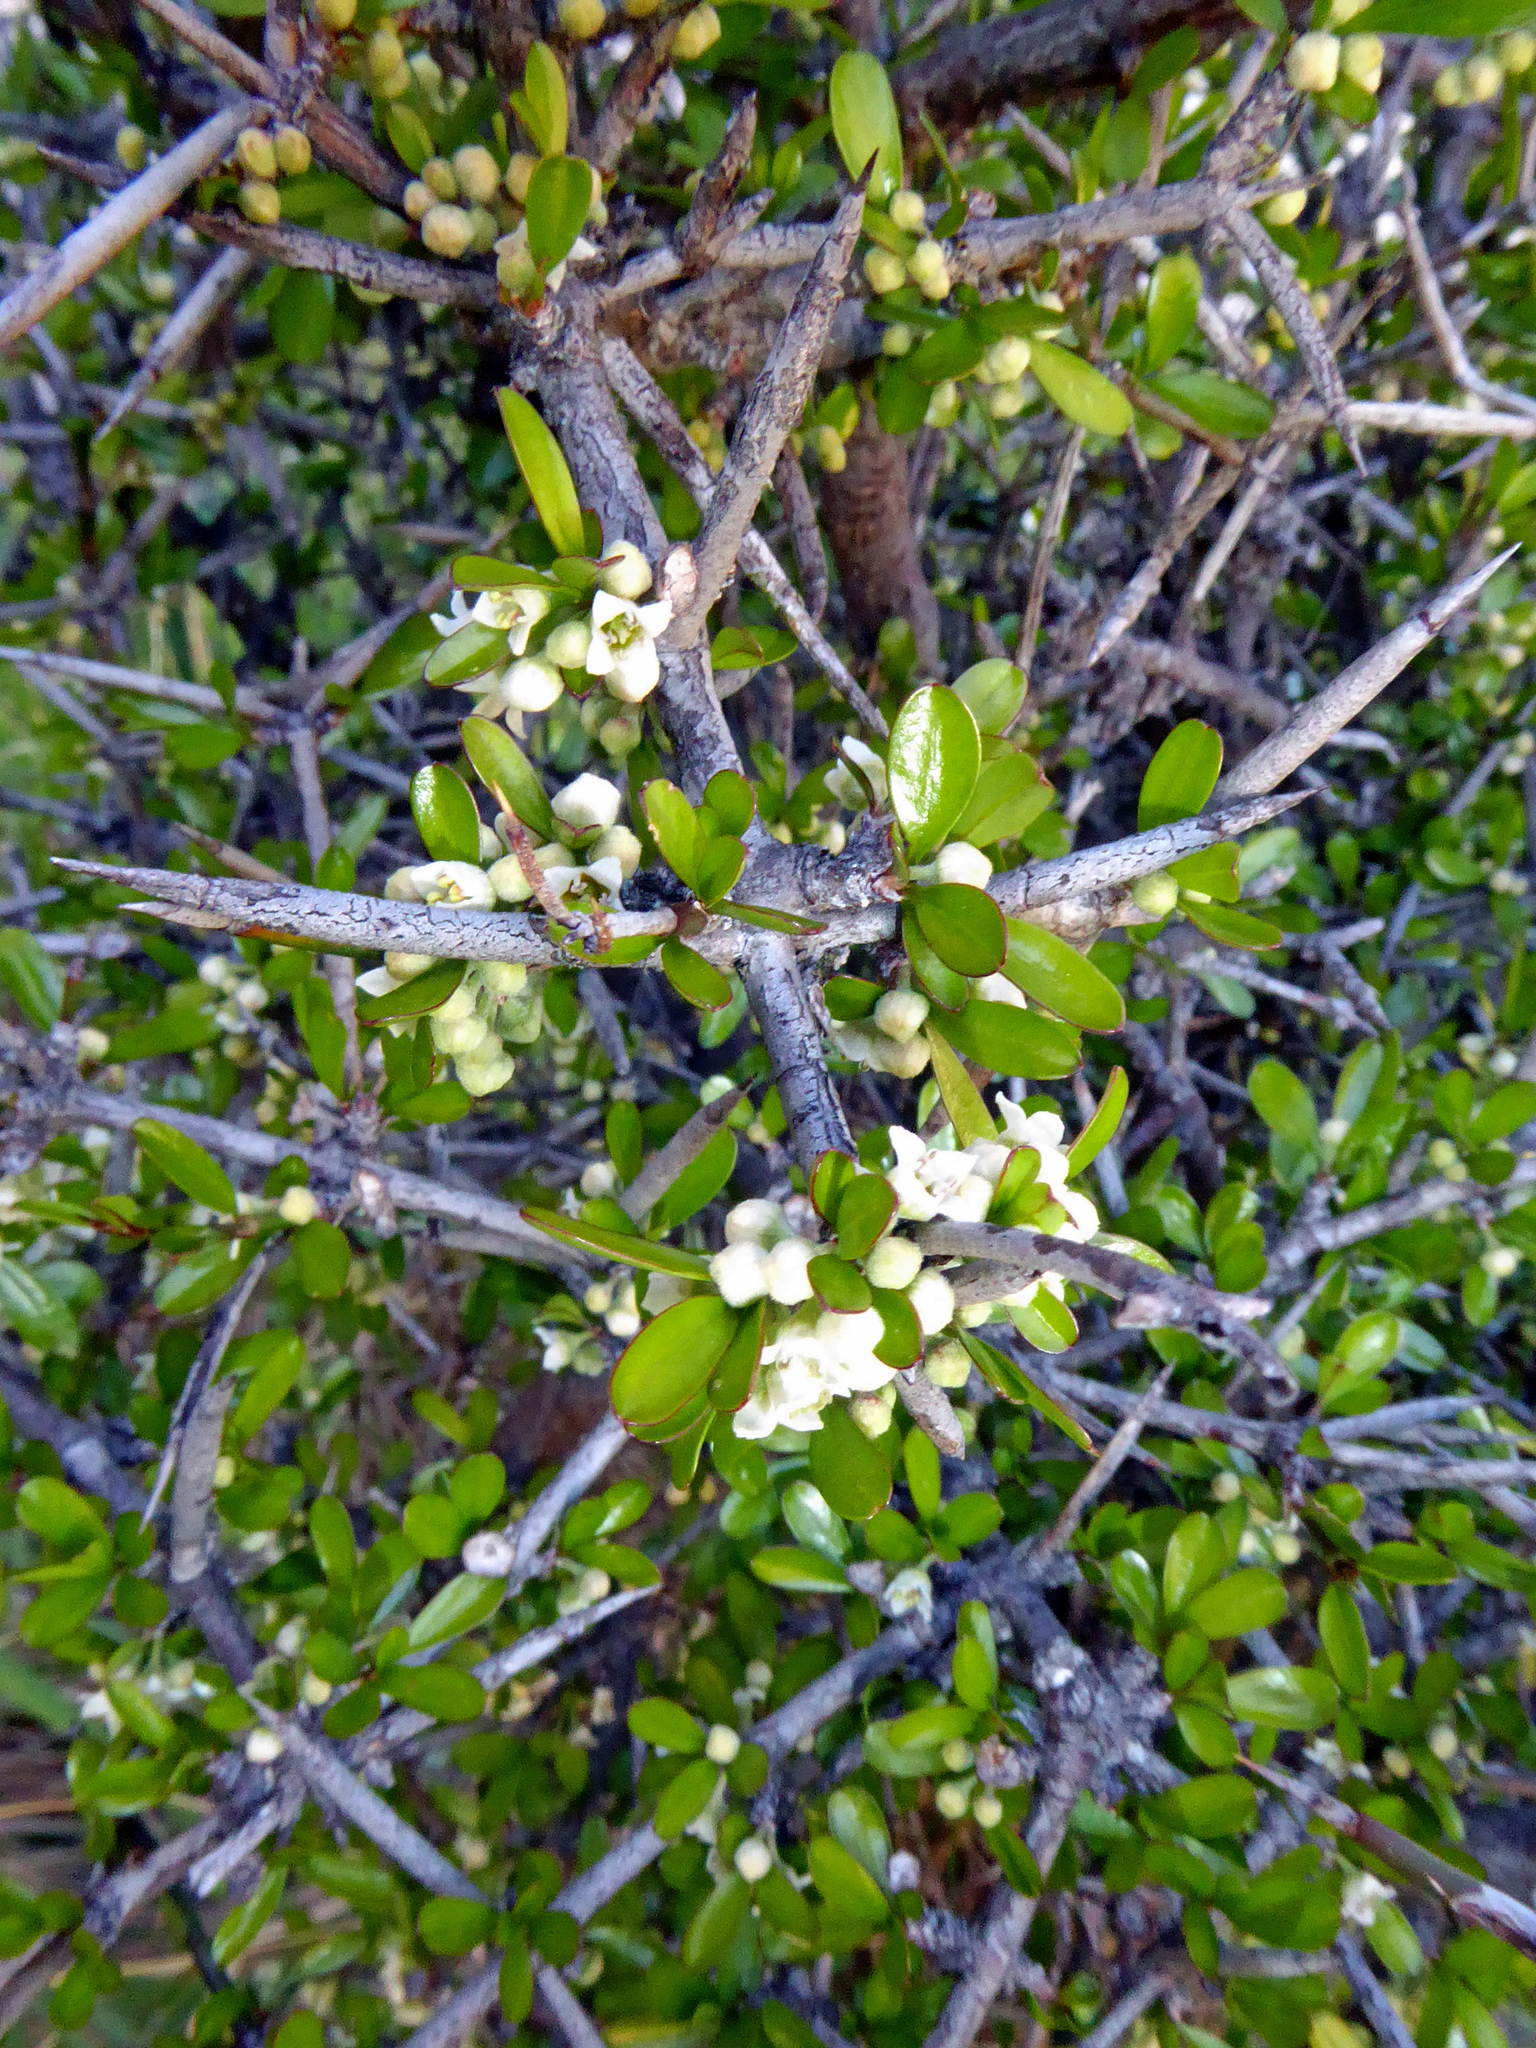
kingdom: Plantae
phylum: Tracheophyta
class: Magnoliopsida
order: Rosales
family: Rhamnaceae
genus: Discaria
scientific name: Discaria toumatou
